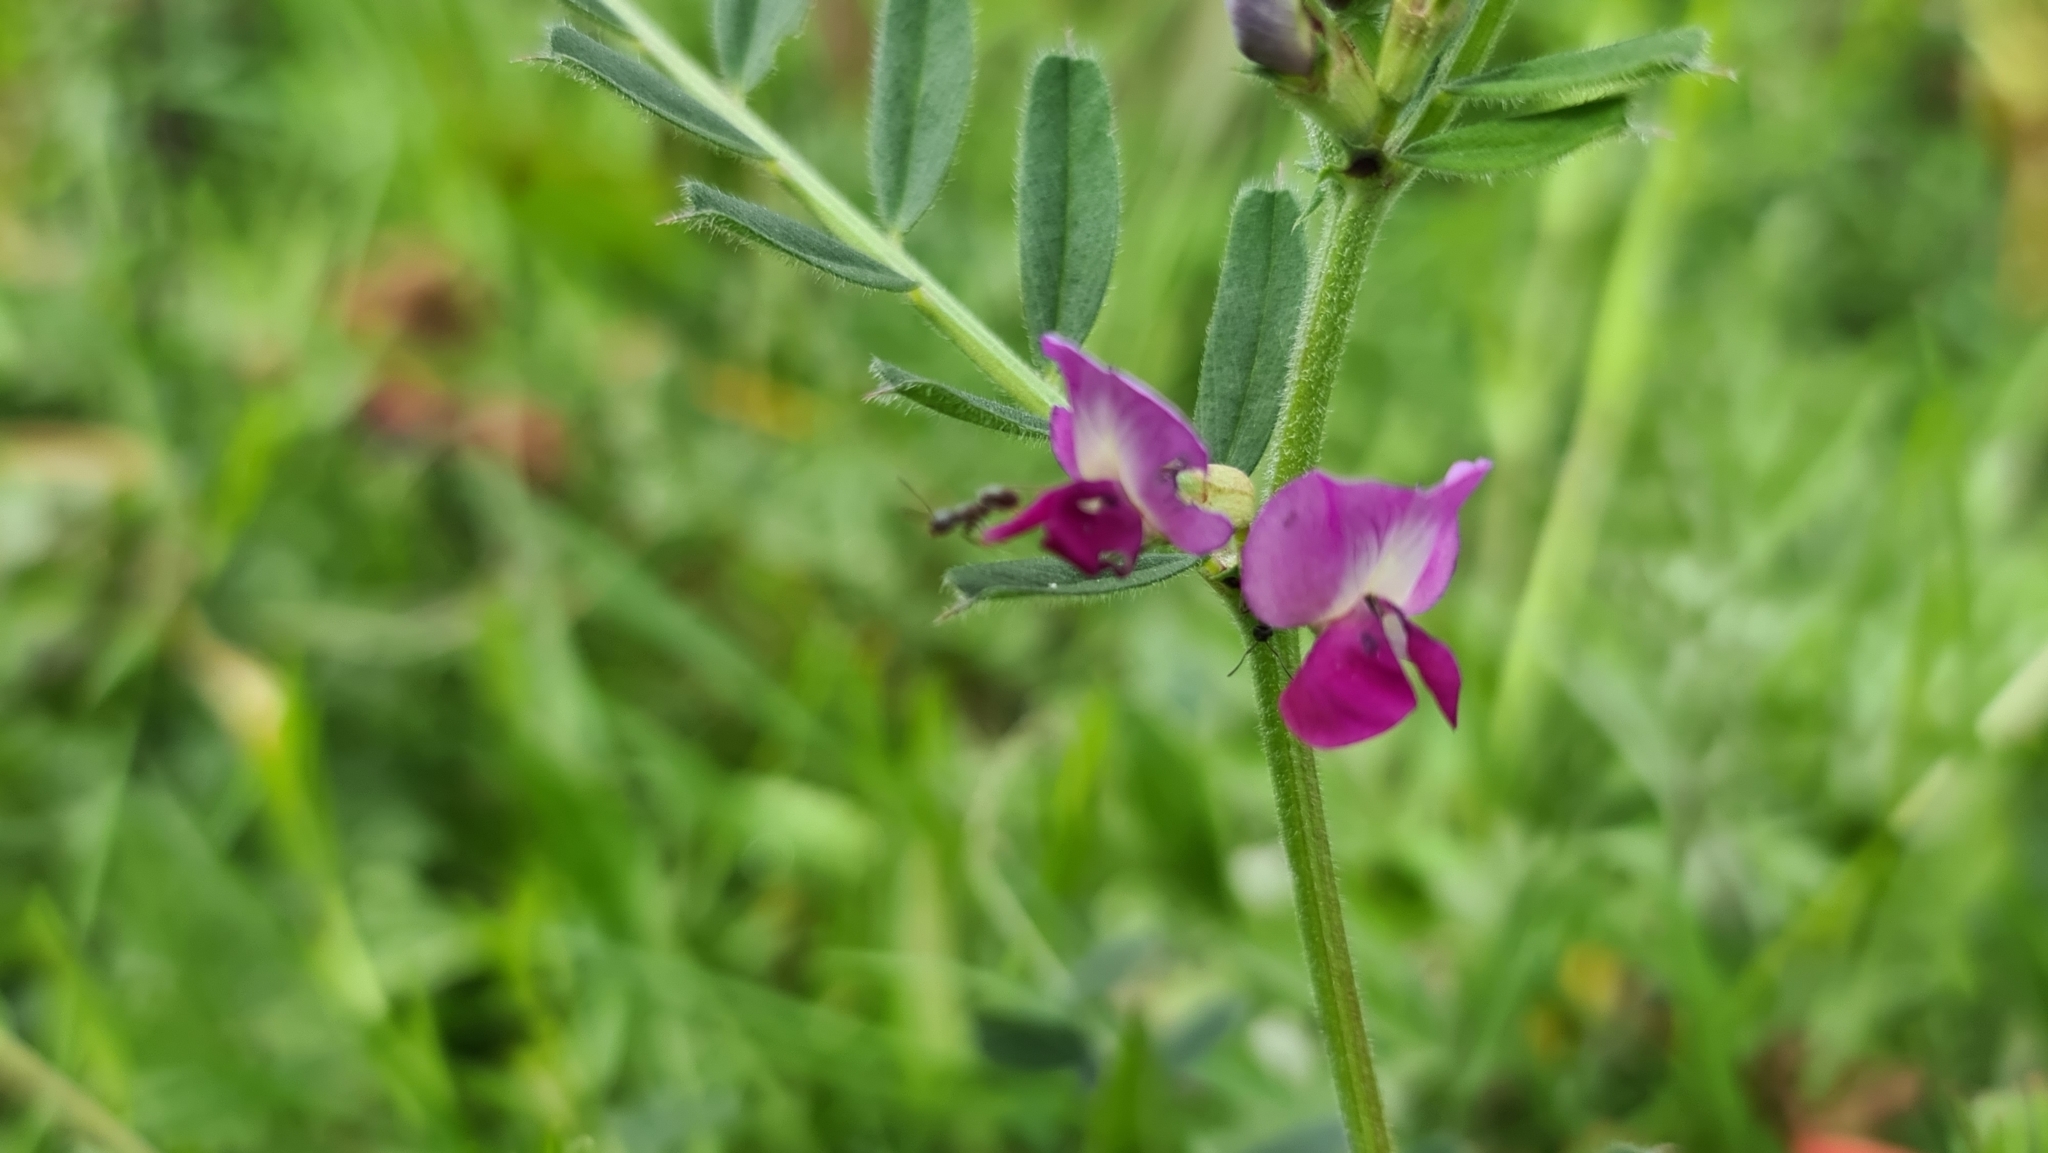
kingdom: Plantae
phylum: Tracheophyta
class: Magnoliopsida
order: Fabales
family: Fabaceae
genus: Vicia
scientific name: Vicia sativa
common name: Garden vetch
